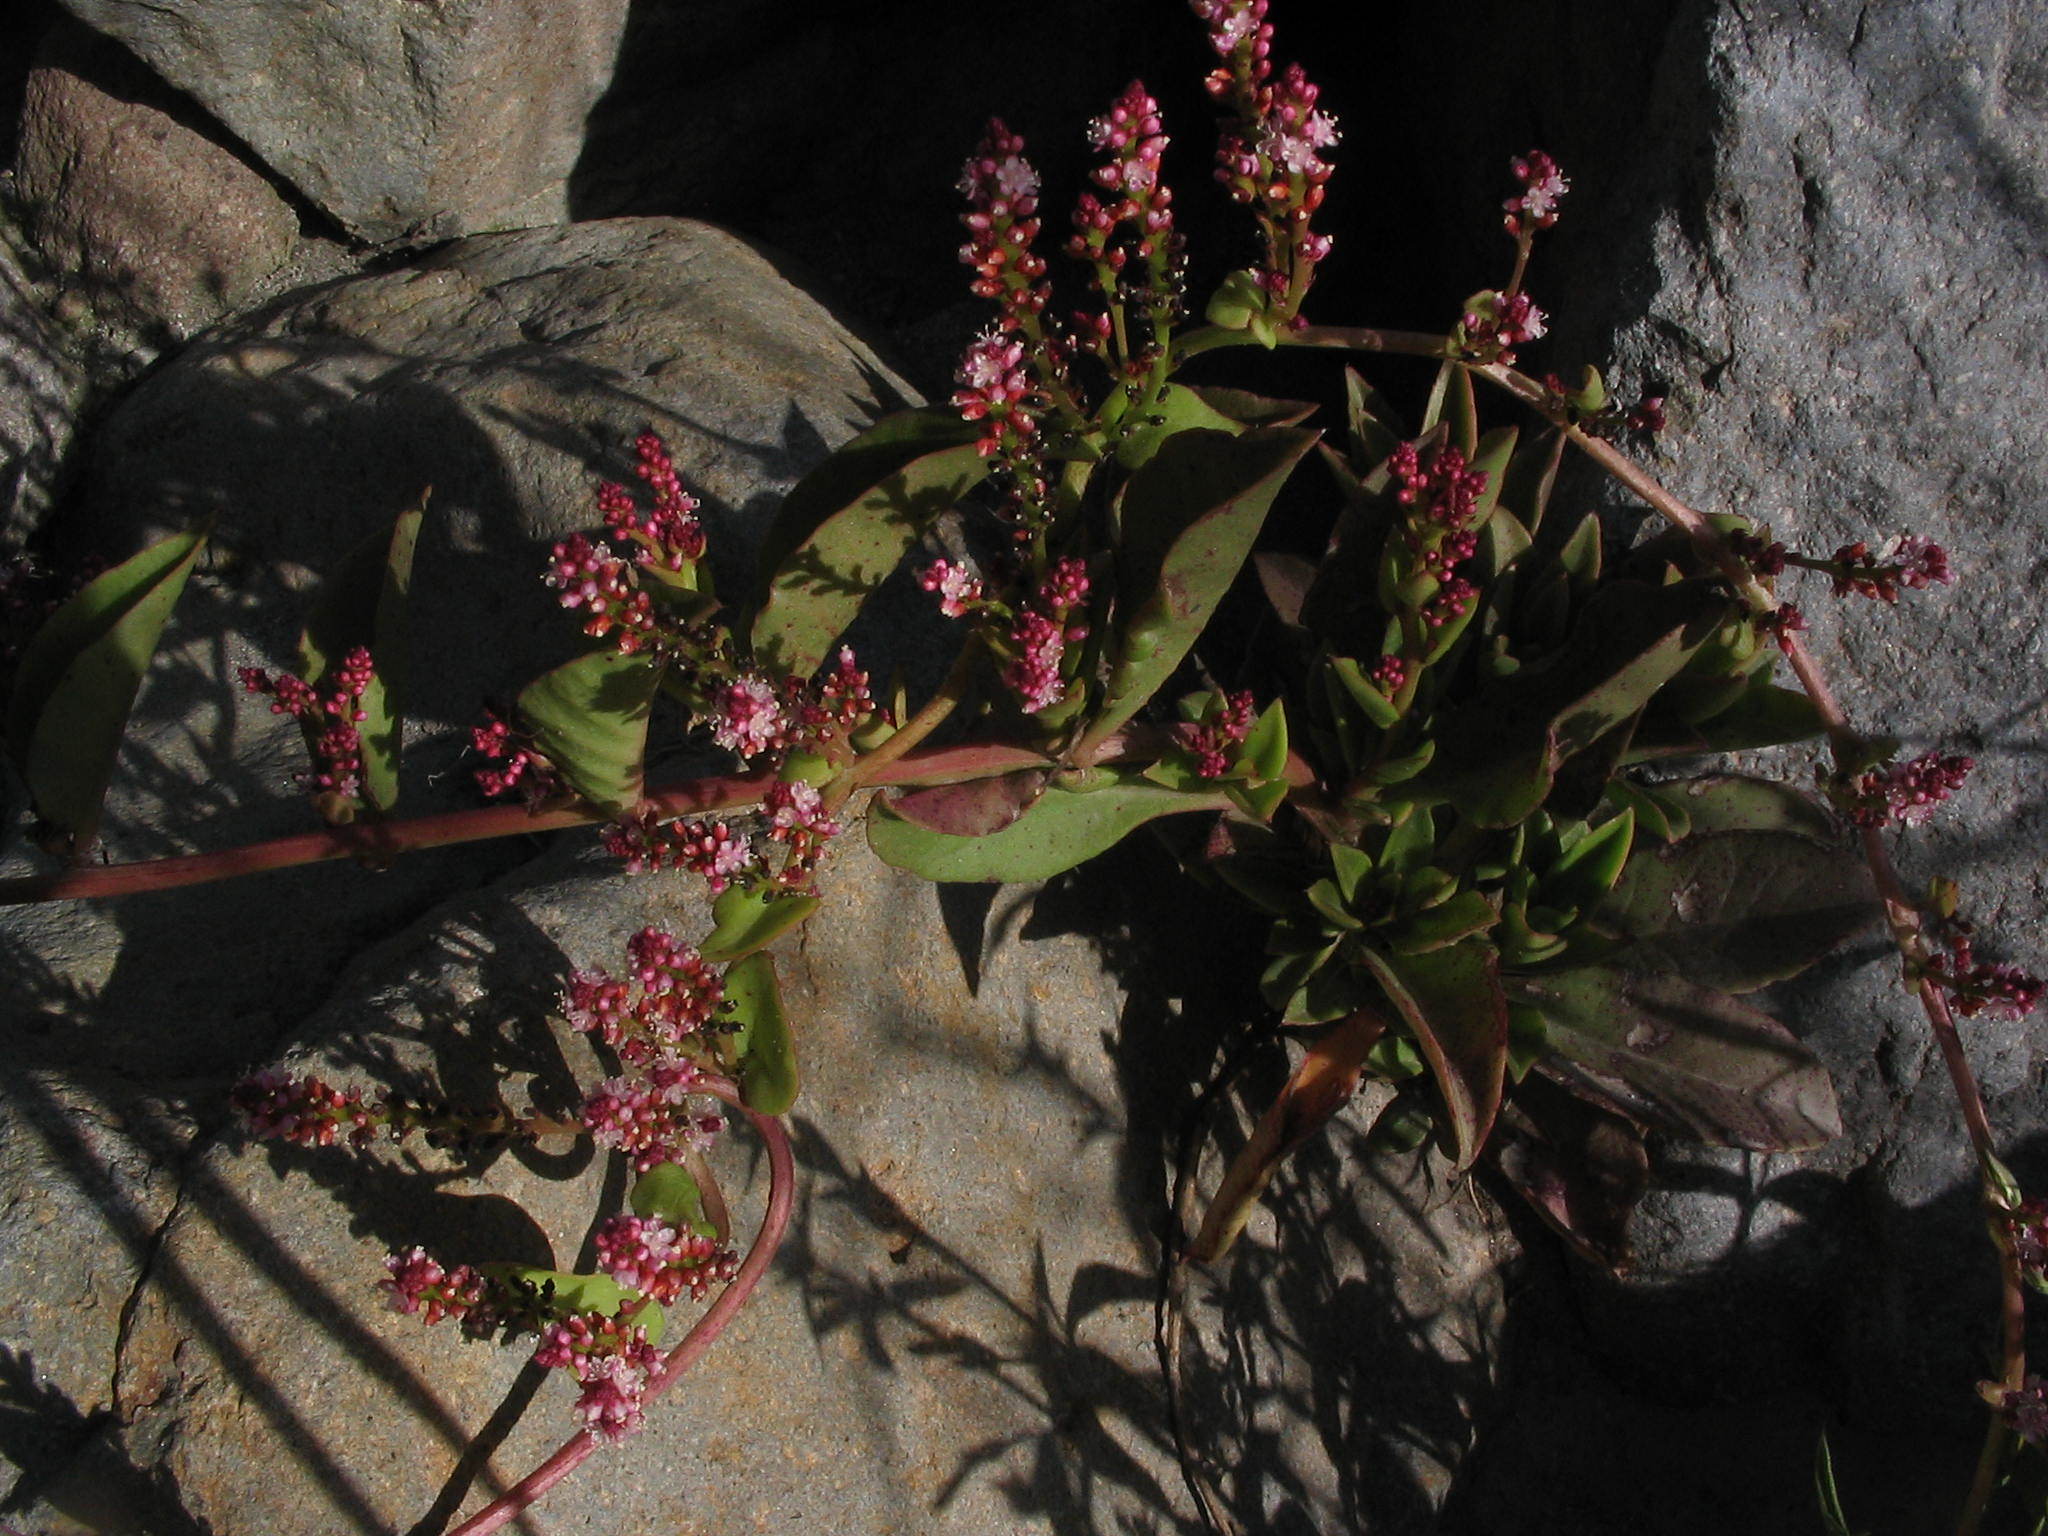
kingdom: Plantae
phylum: Tracheophyta
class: Magnoliopsida
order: Caryophyllales
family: Basellaceae
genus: Anredera
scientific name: Anredera diffusa
